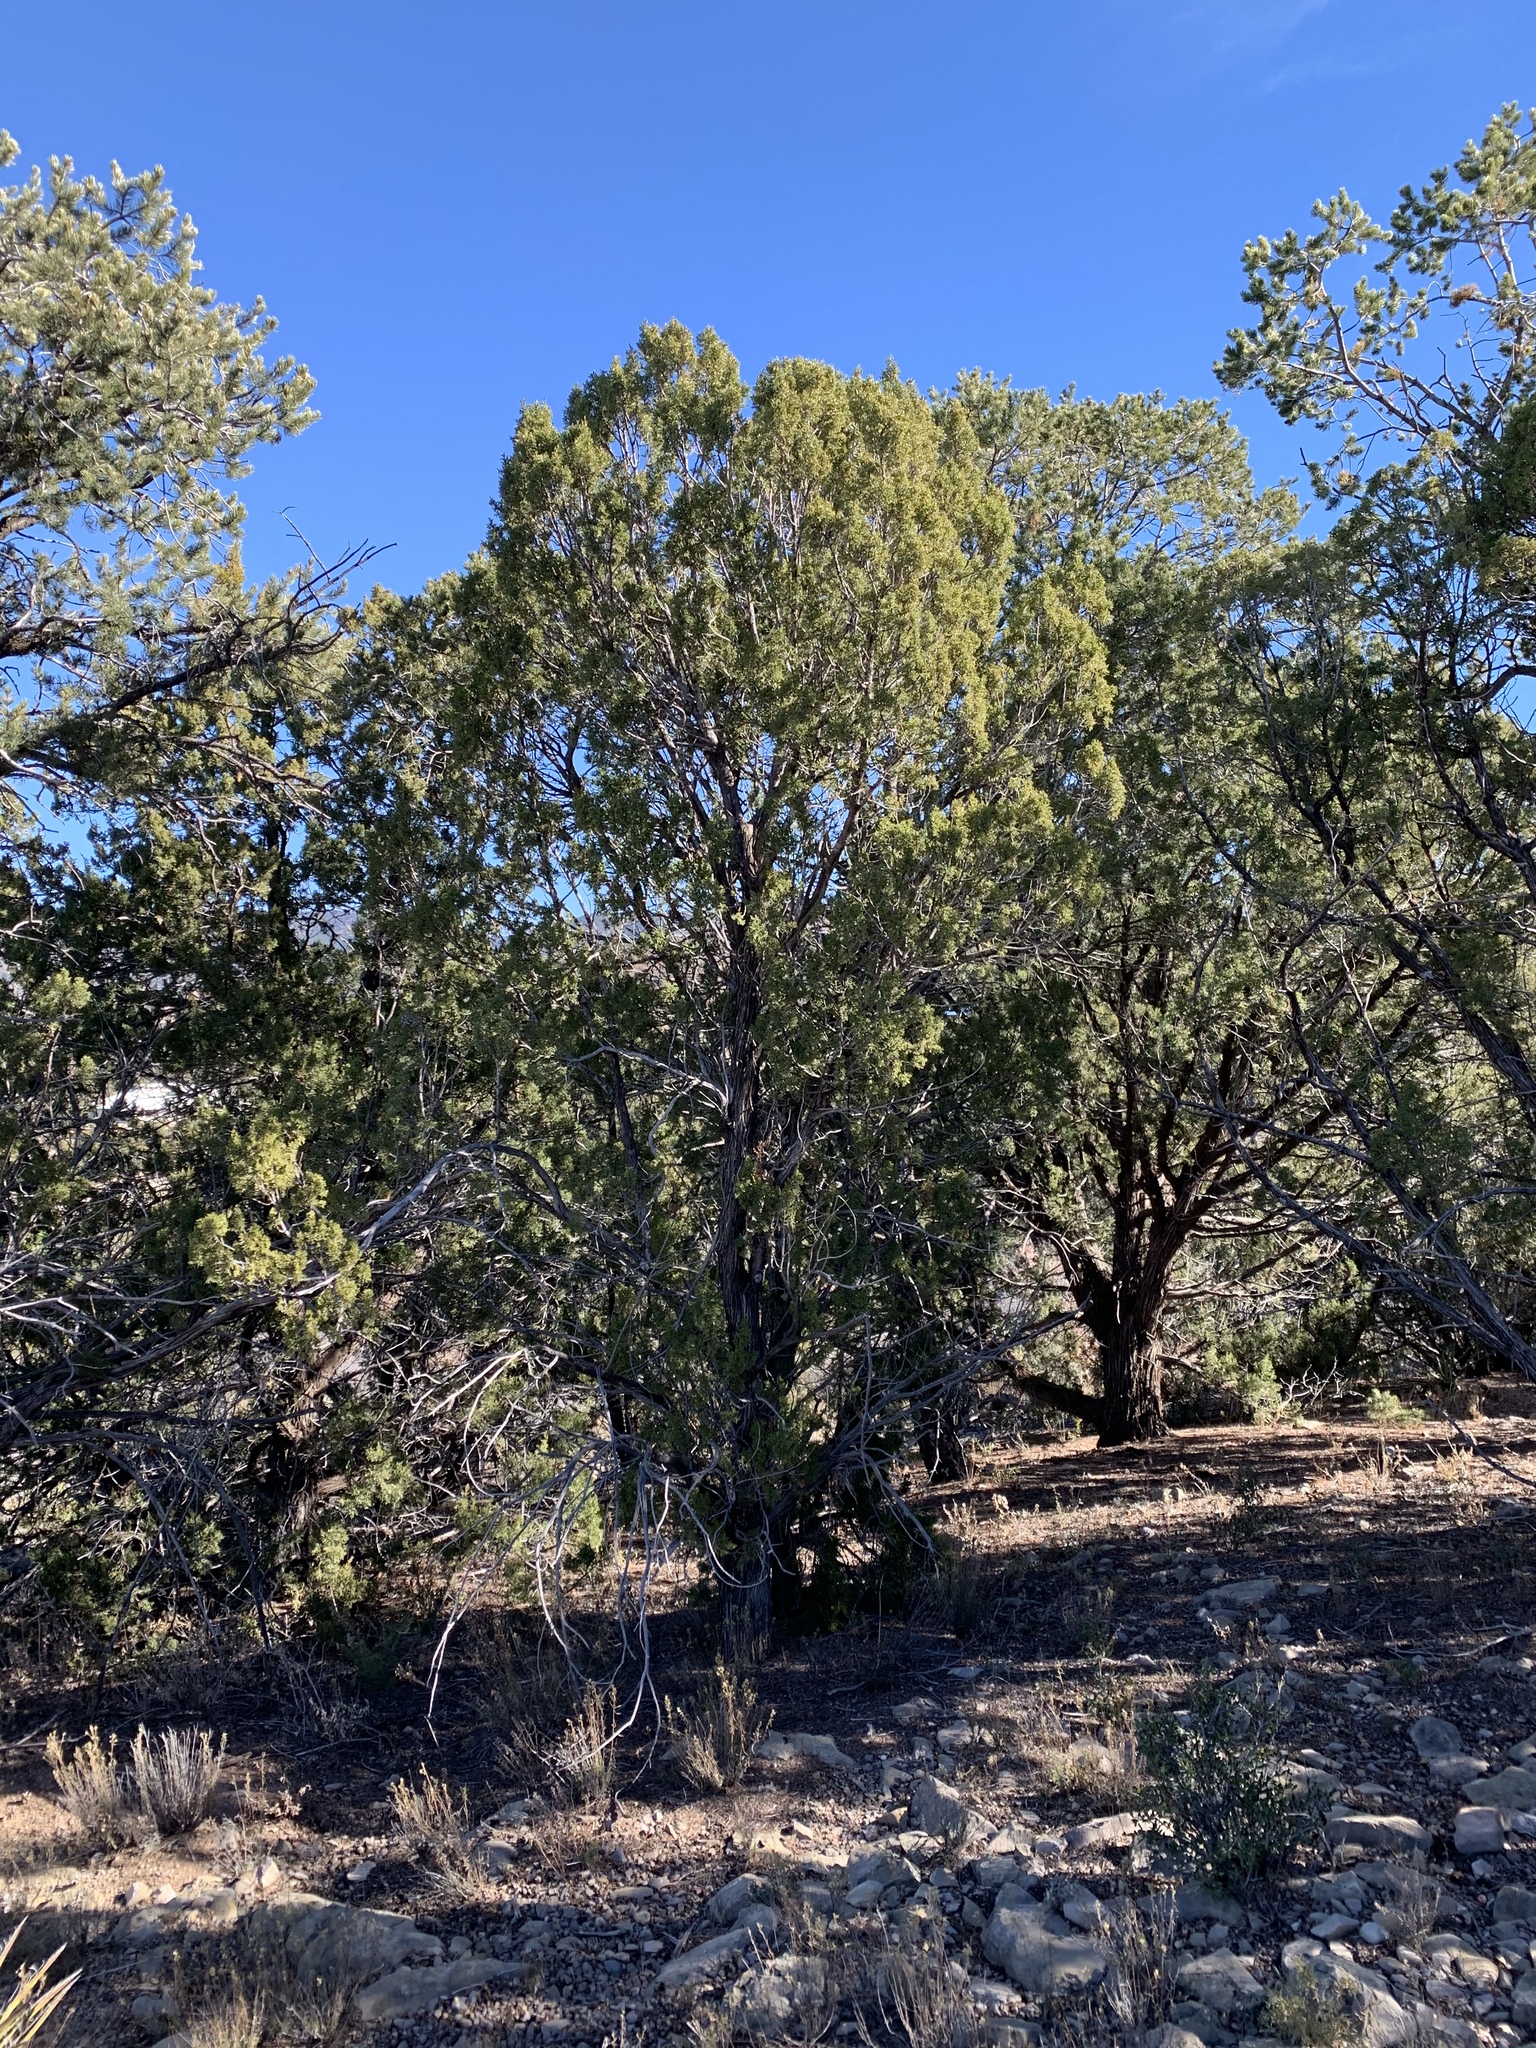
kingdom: Plantae
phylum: Tracheophyta
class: Pinopsida
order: Pinales
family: Cupressaceae
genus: Juniperus
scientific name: Juniperus monosperma
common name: One-seed juniper
